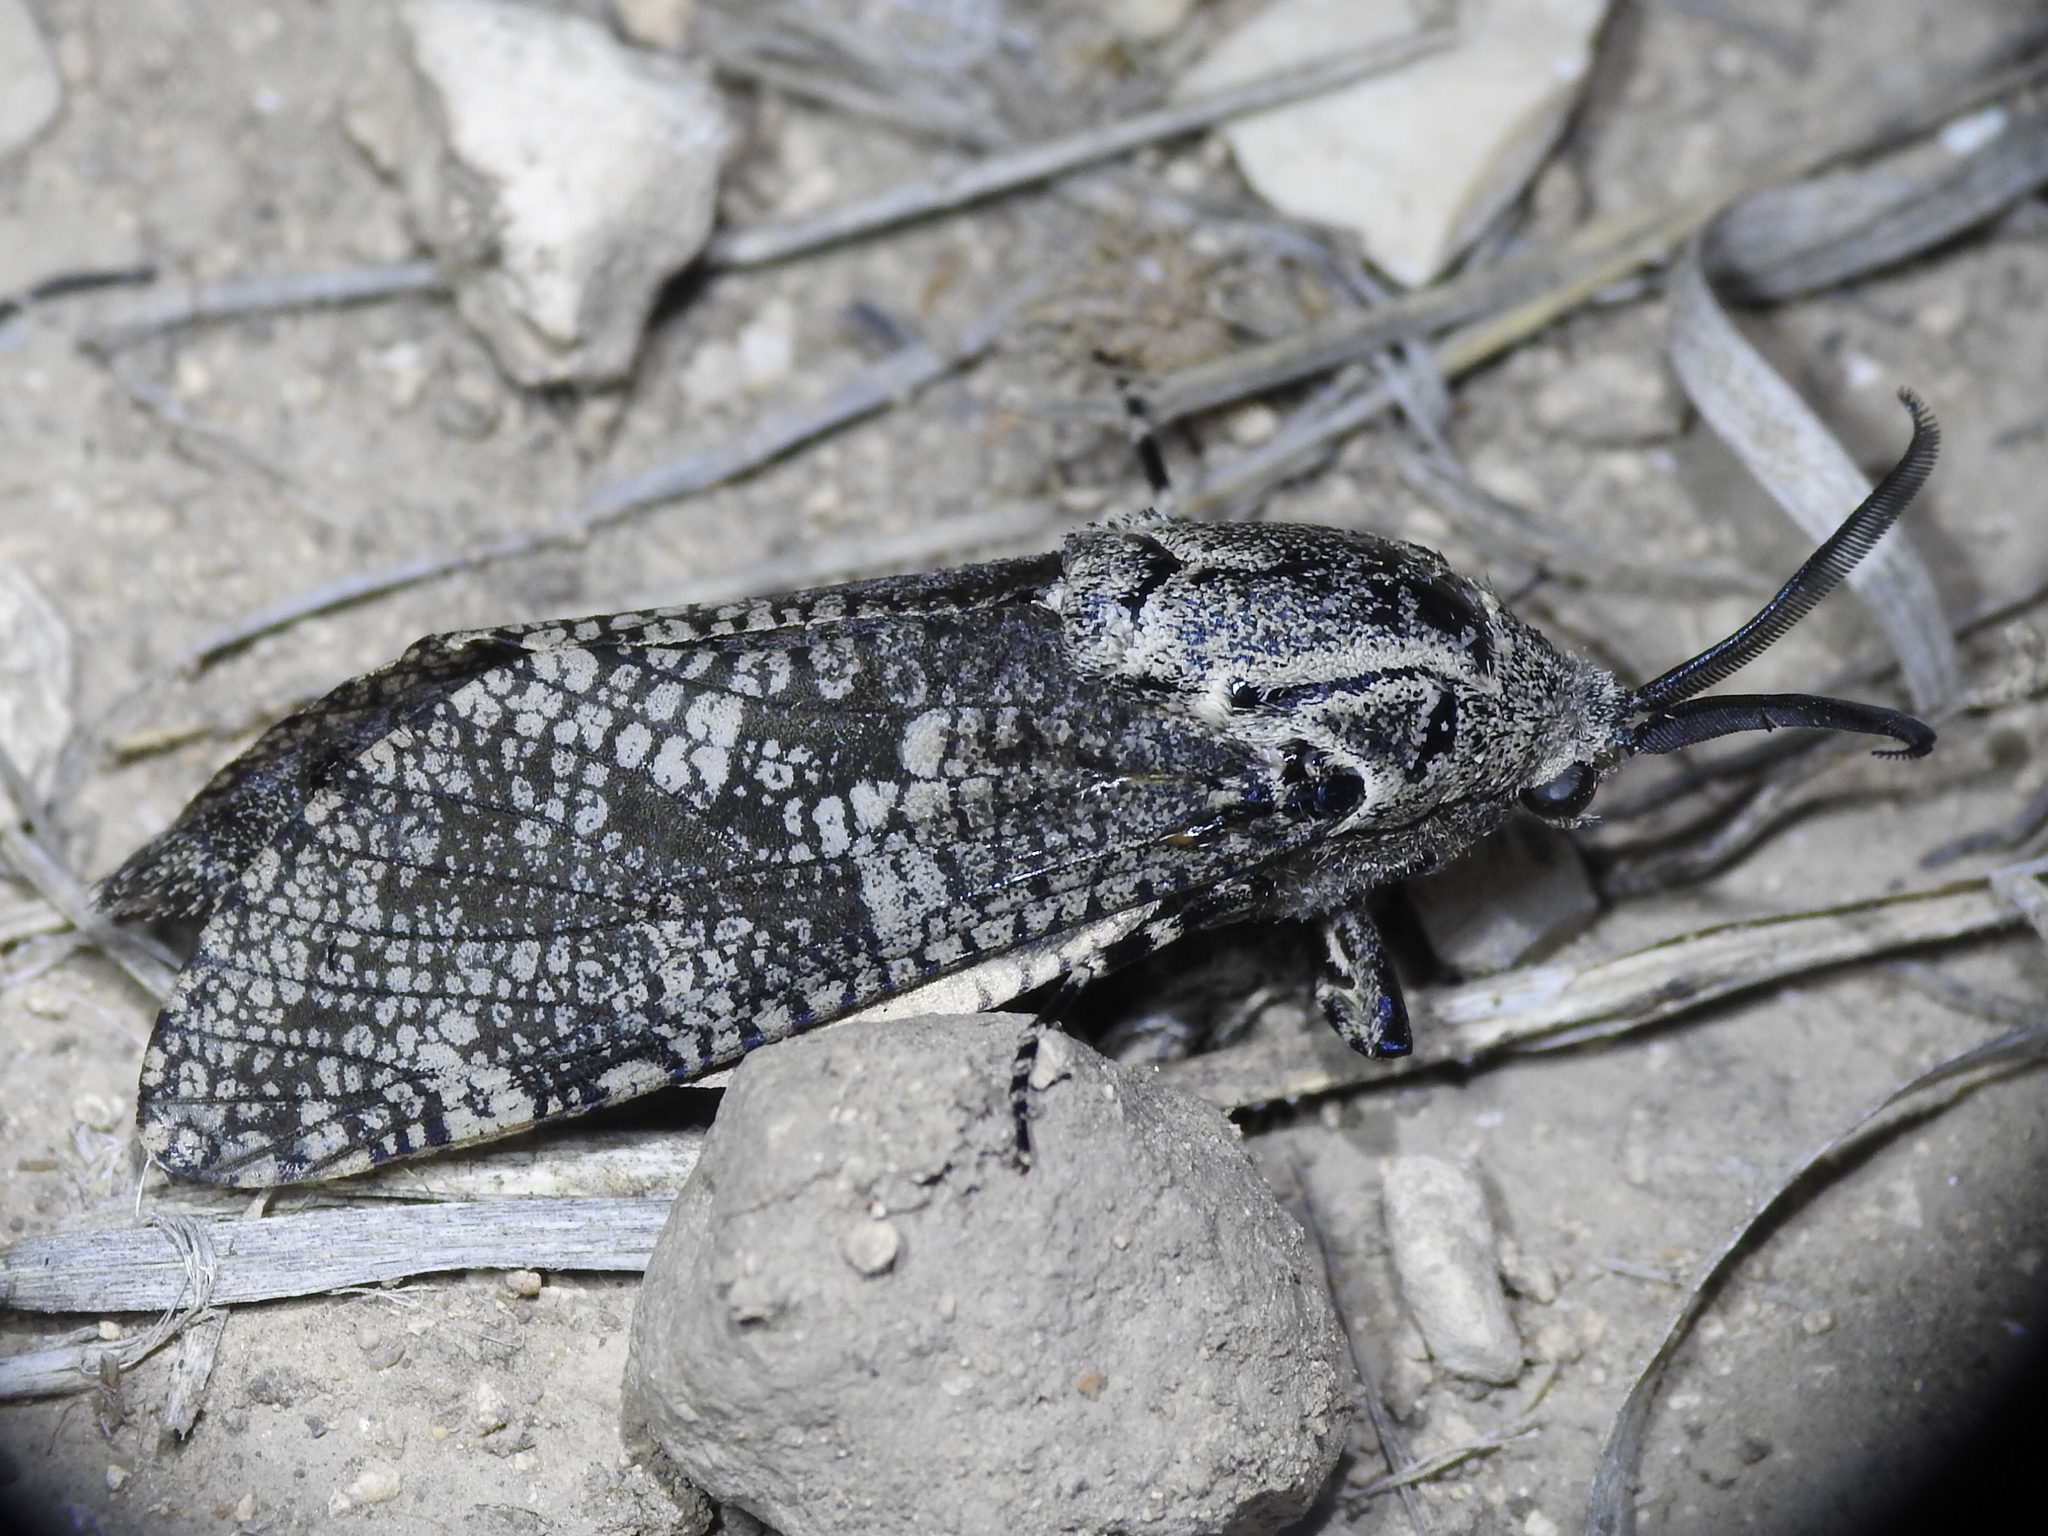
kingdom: Animalia
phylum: Arthropoda
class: Insecta
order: Lepidoptera
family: Cossidae
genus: Prionoxystus
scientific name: Prionoxystus robiniae
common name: Carpenterworm
